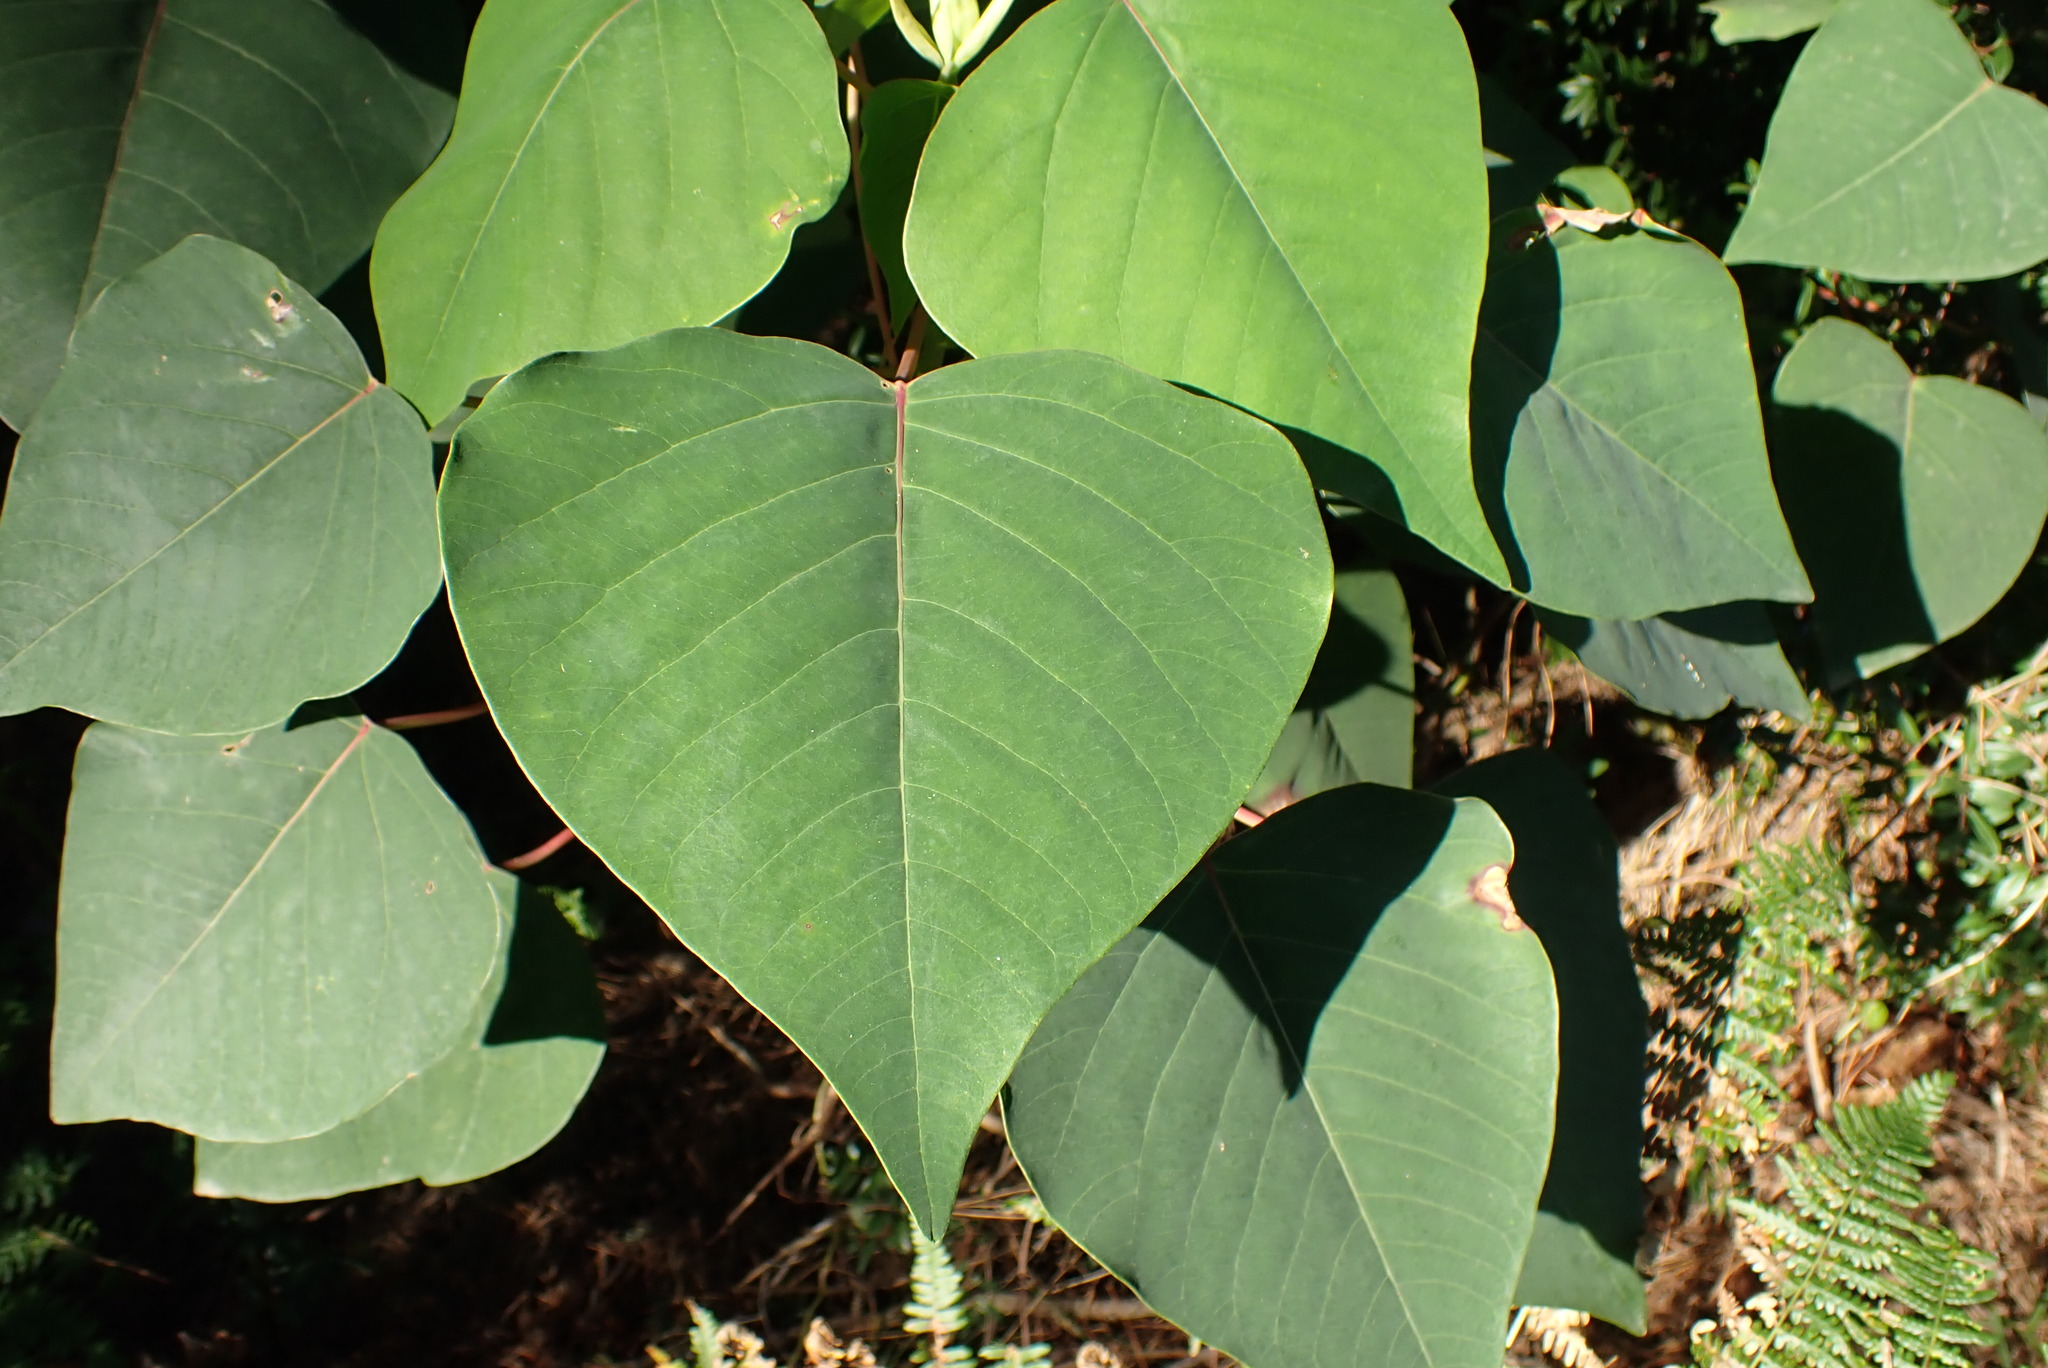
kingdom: Plantae
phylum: Tracheophyta
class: Magnoliopsida
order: Malpighiales
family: Euphorbiaceae
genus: Homalanthus
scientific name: Homalanthus populifolius
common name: Queensland poplar
